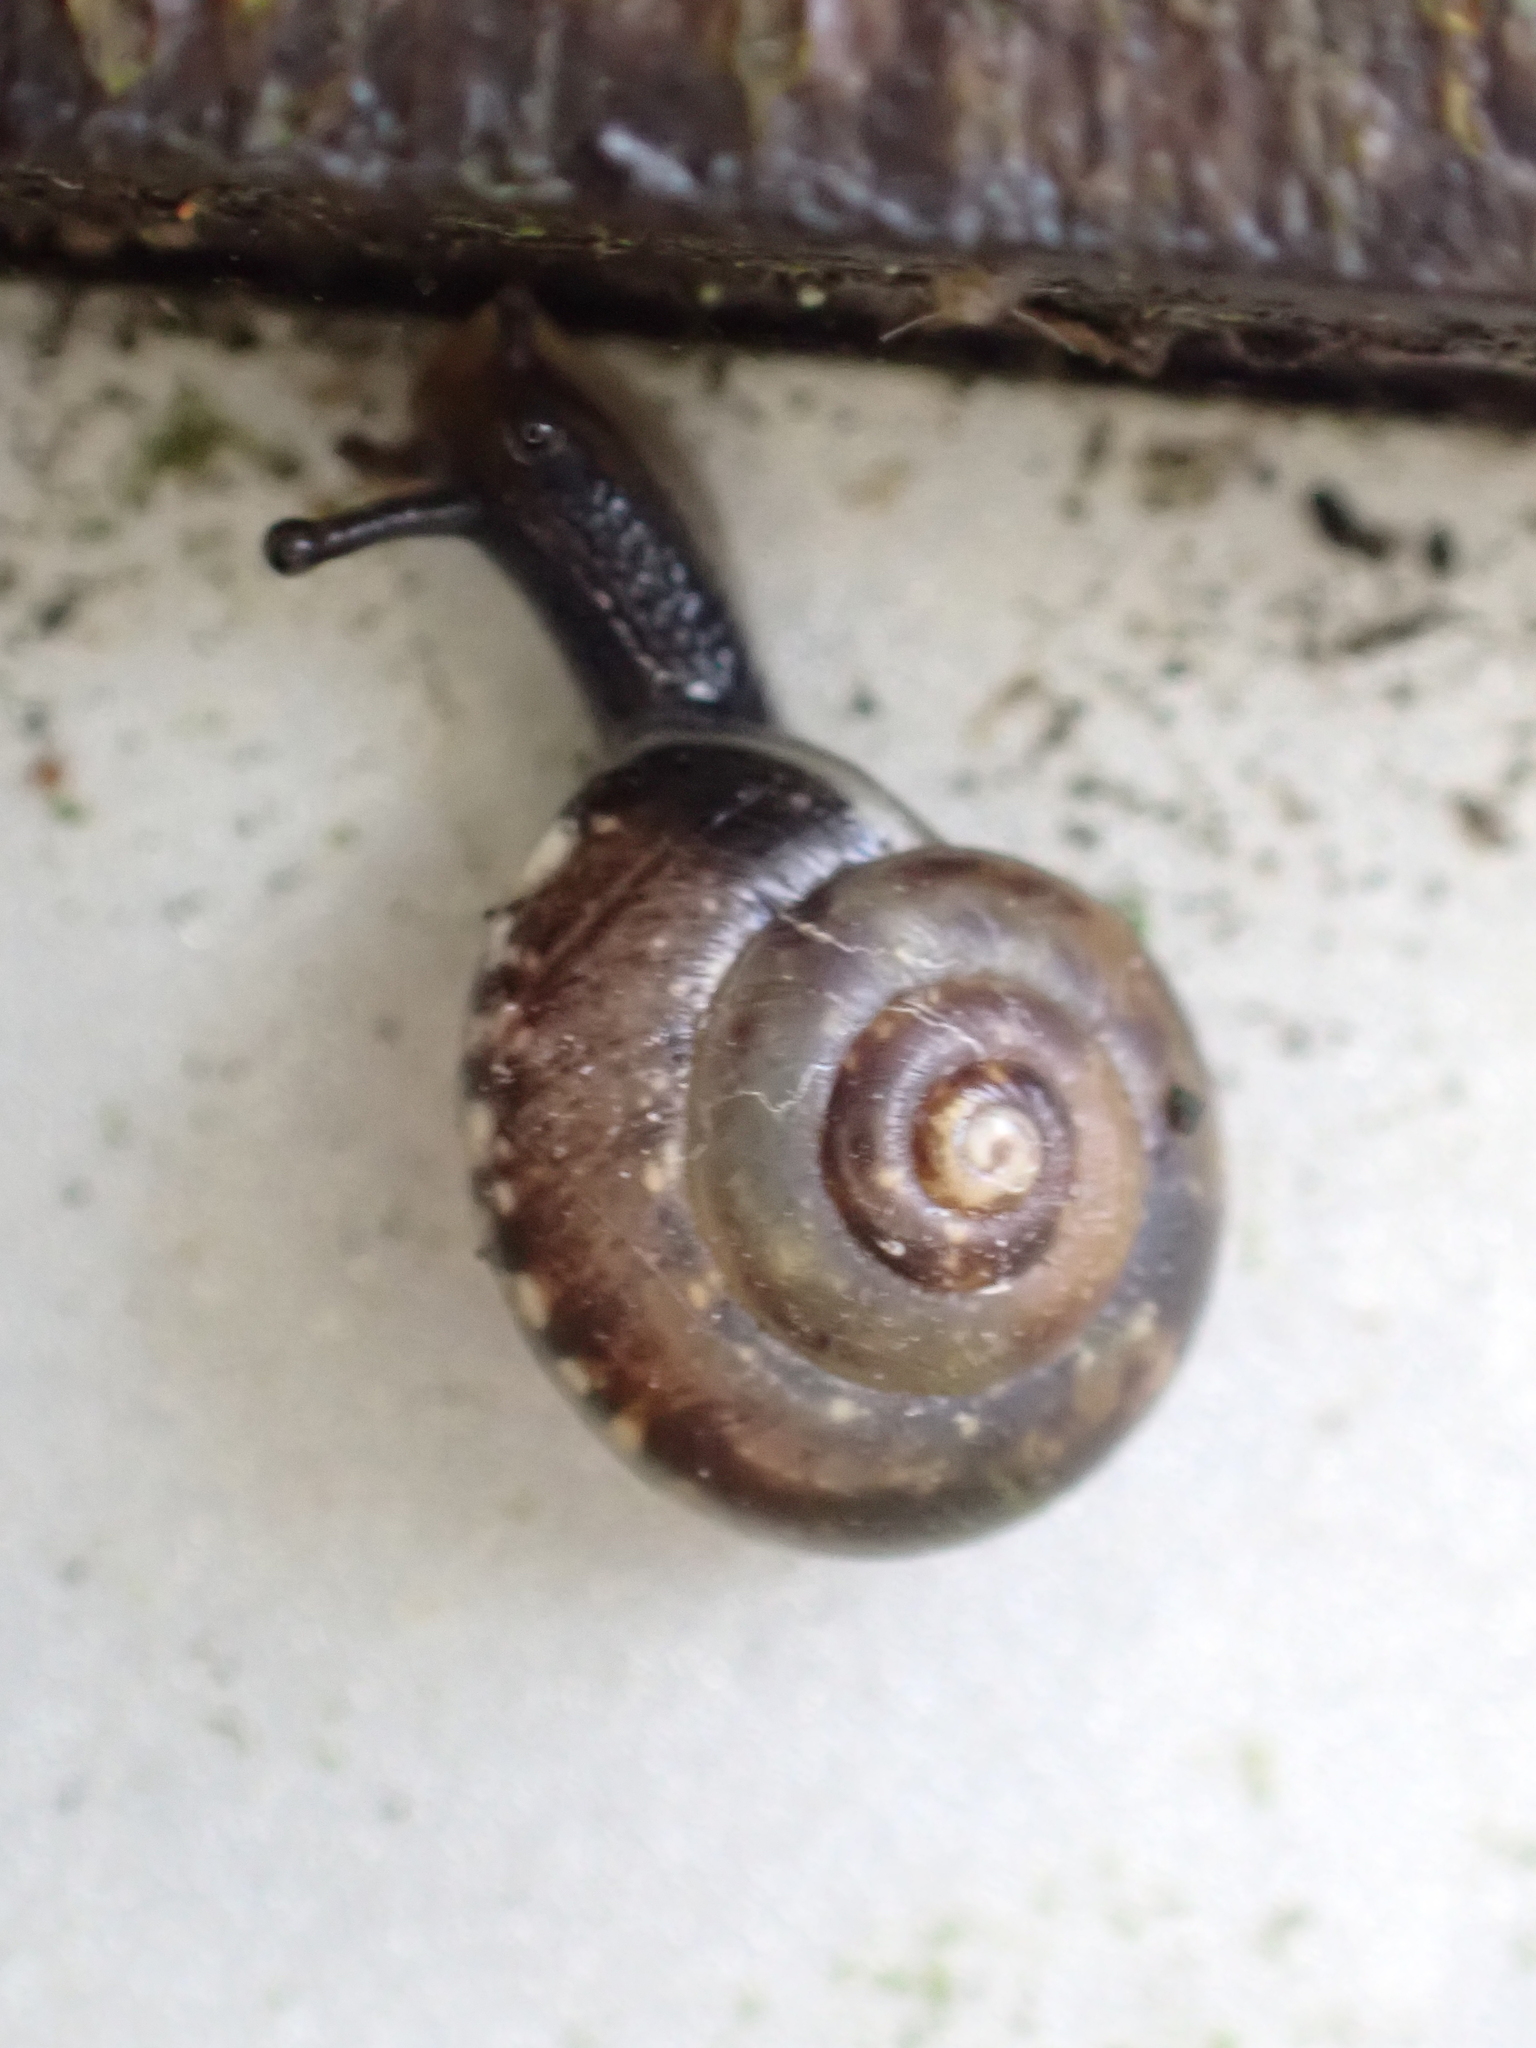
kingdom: Animalia
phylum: Mollusca
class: Gastropoda
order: Stylommatophora
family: Hygromiidae
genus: Hygromia
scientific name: Hygromia cinctella
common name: Girdled snail
